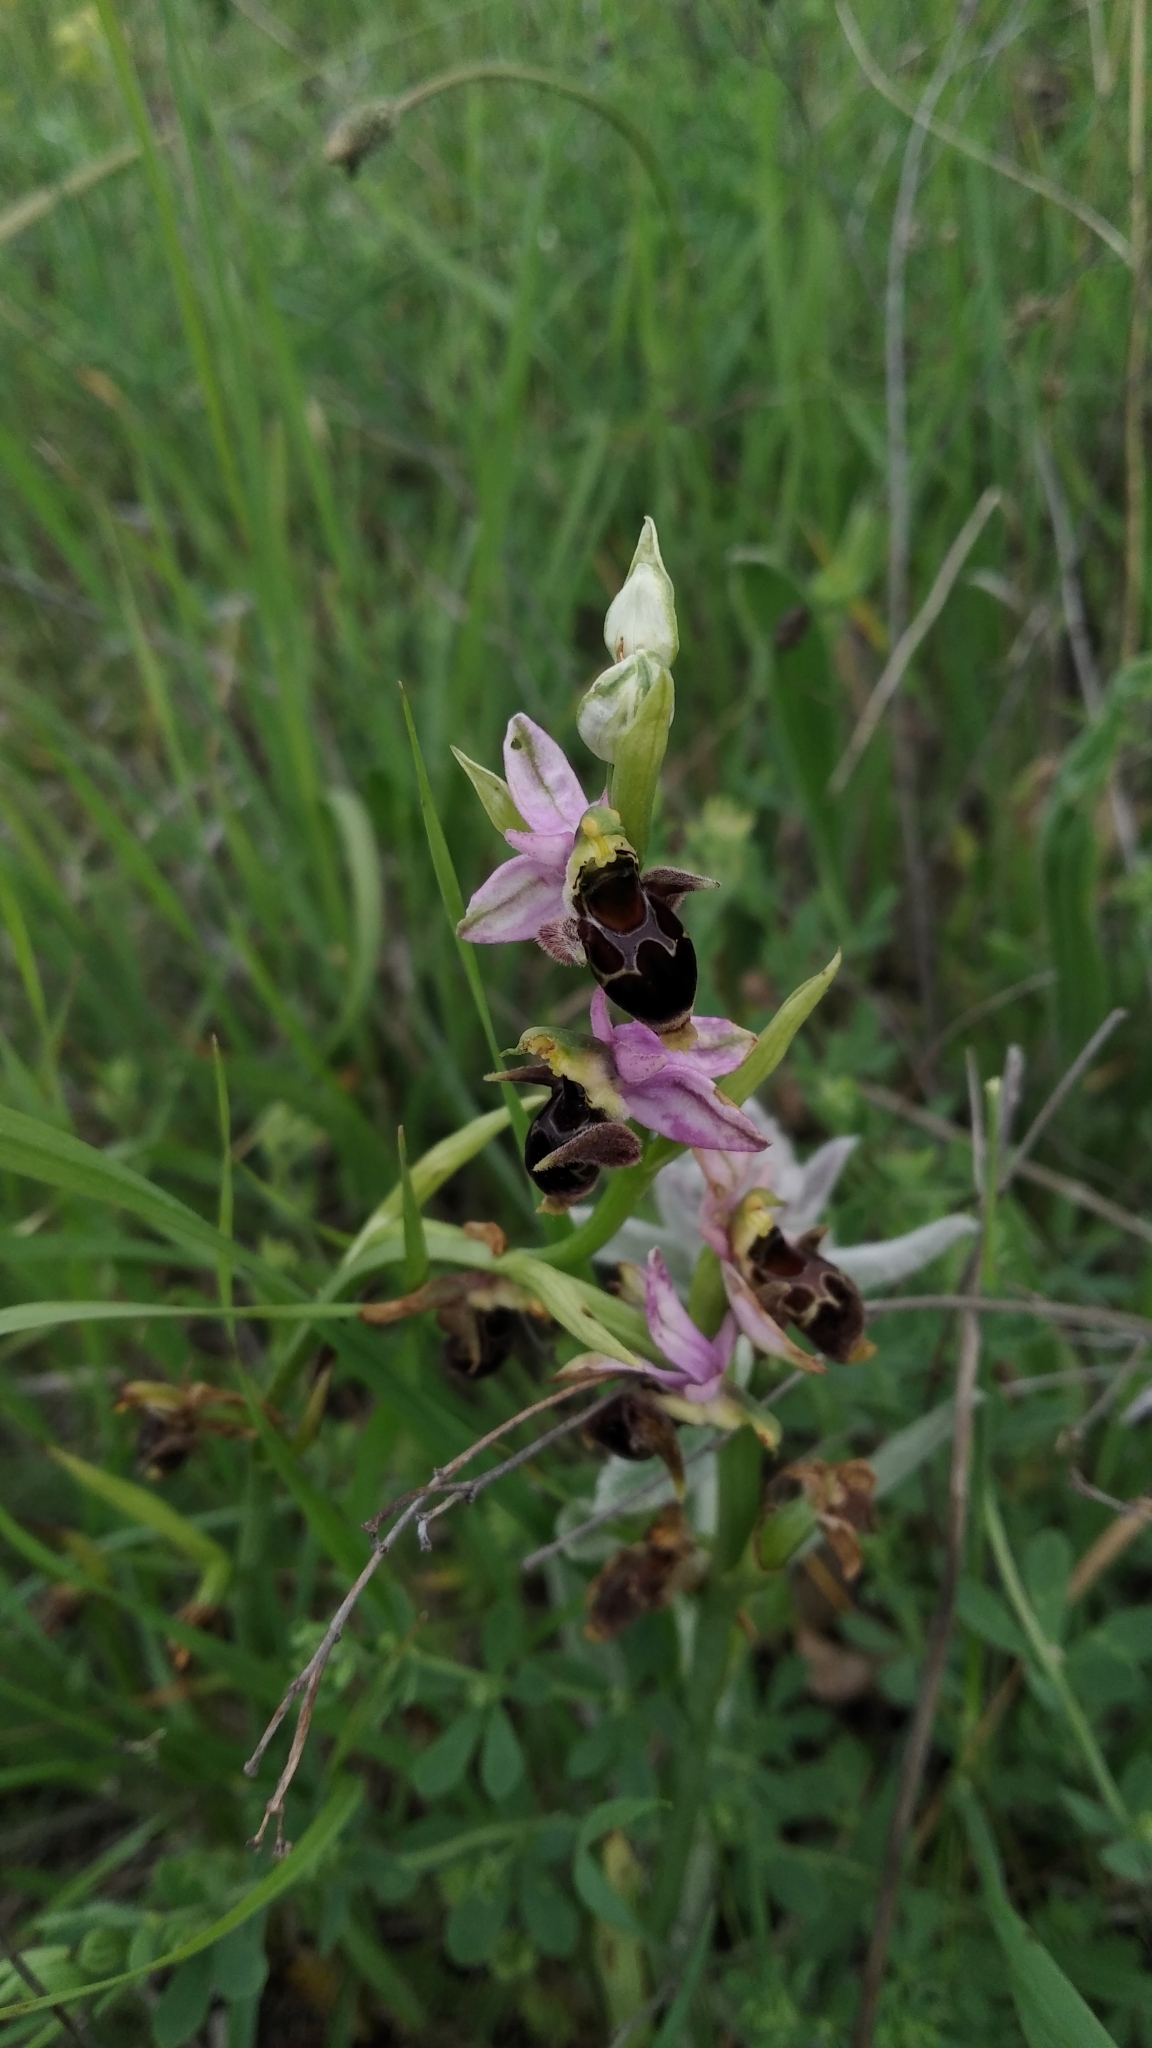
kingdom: Plantae
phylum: Tracheophyta
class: Liliopsida
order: Asparagales
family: Orchidaceae
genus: Ophrys
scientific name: Ophrys
